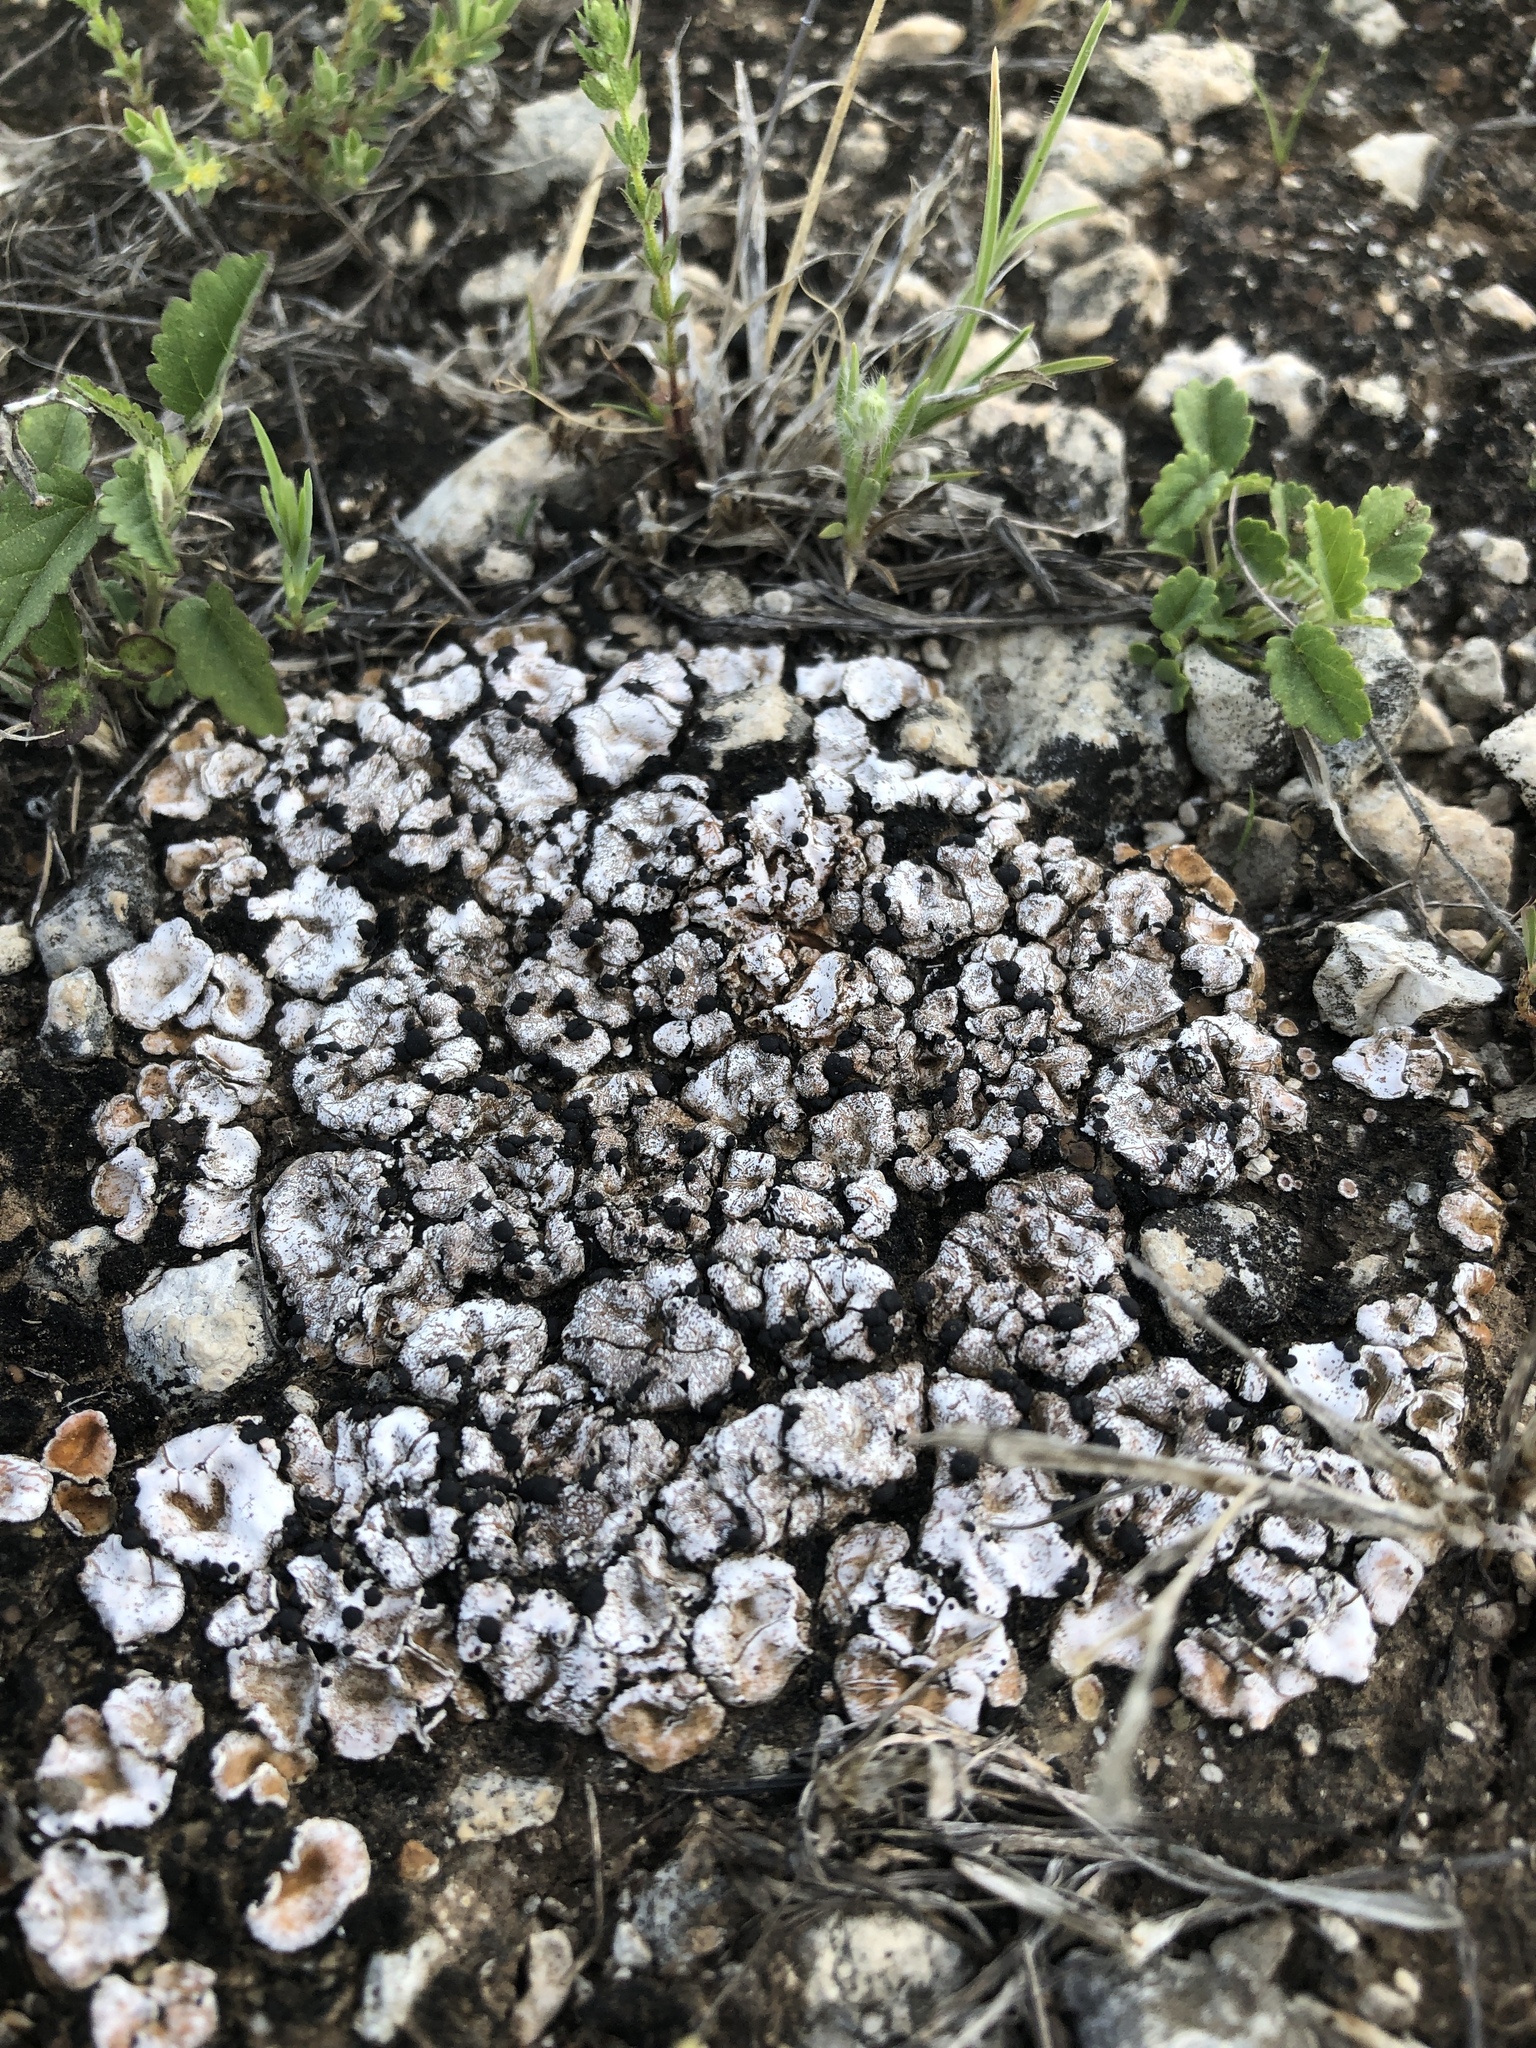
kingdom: Fungi
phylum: Ascomycota
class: Lecanoromycetes
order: Lecanorales
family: Psoraceae
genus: Psora
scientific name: Psora crenata
